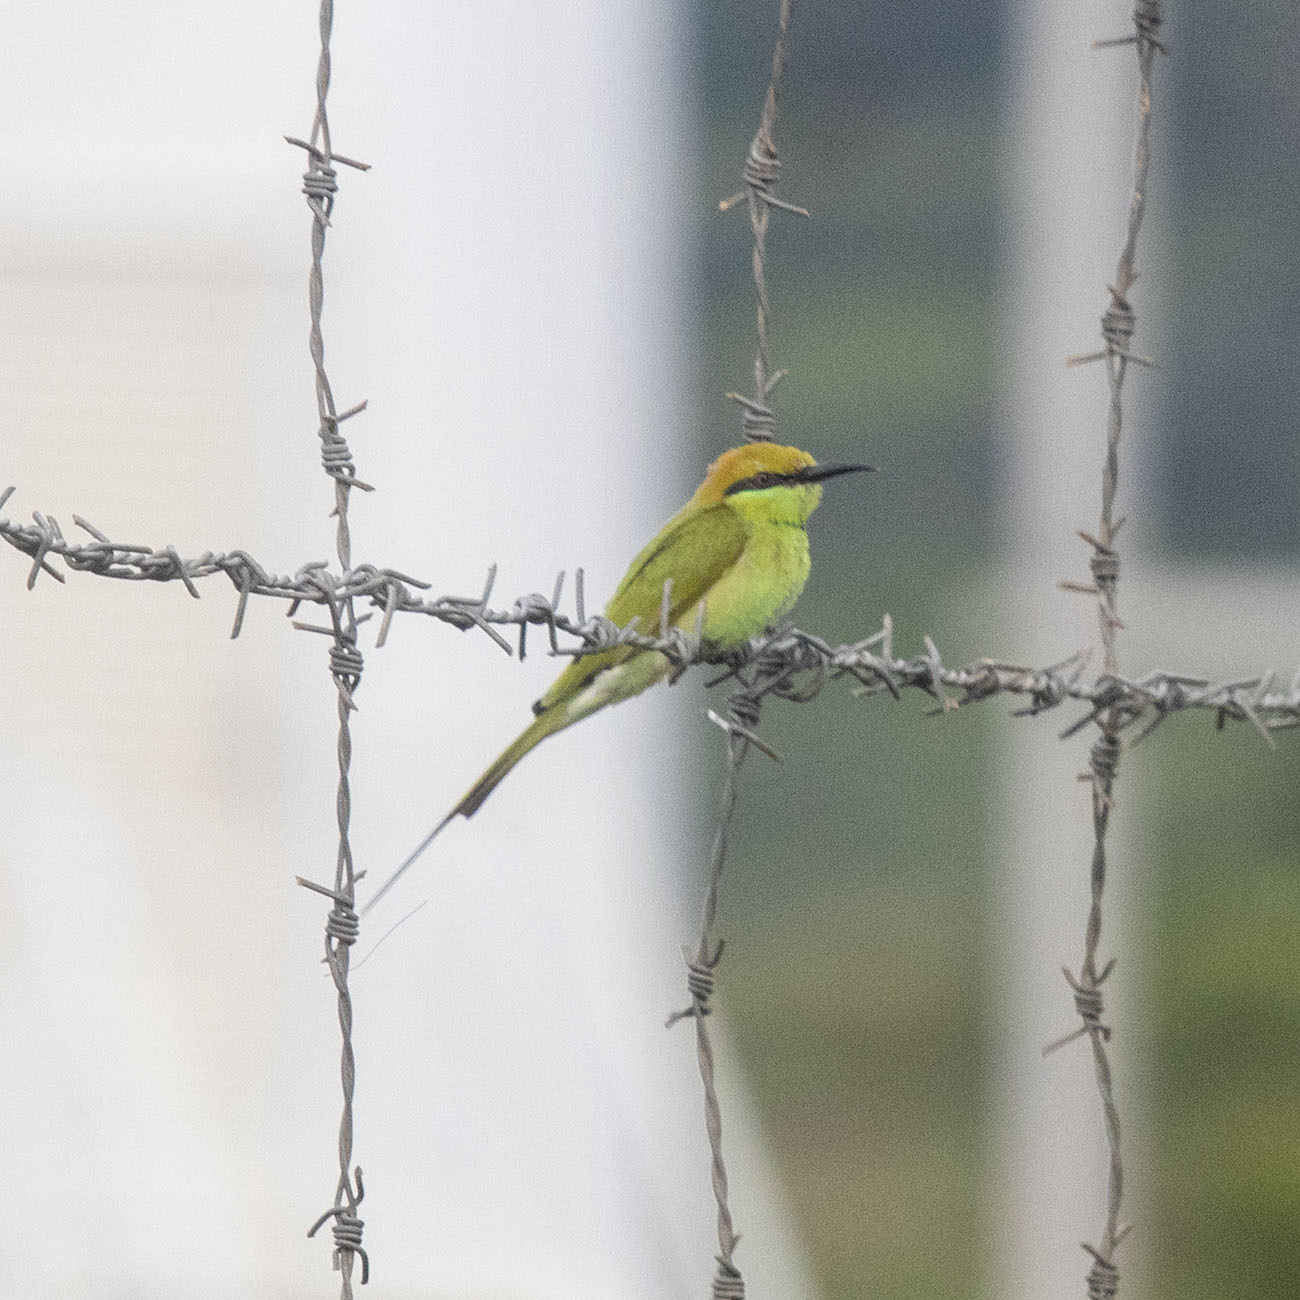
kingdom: Animalia
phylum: Chordata
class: Aves
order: Coraciiformes
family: Meropidae
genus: Merops
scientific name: Merops orientalis
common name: Green bee-eater
